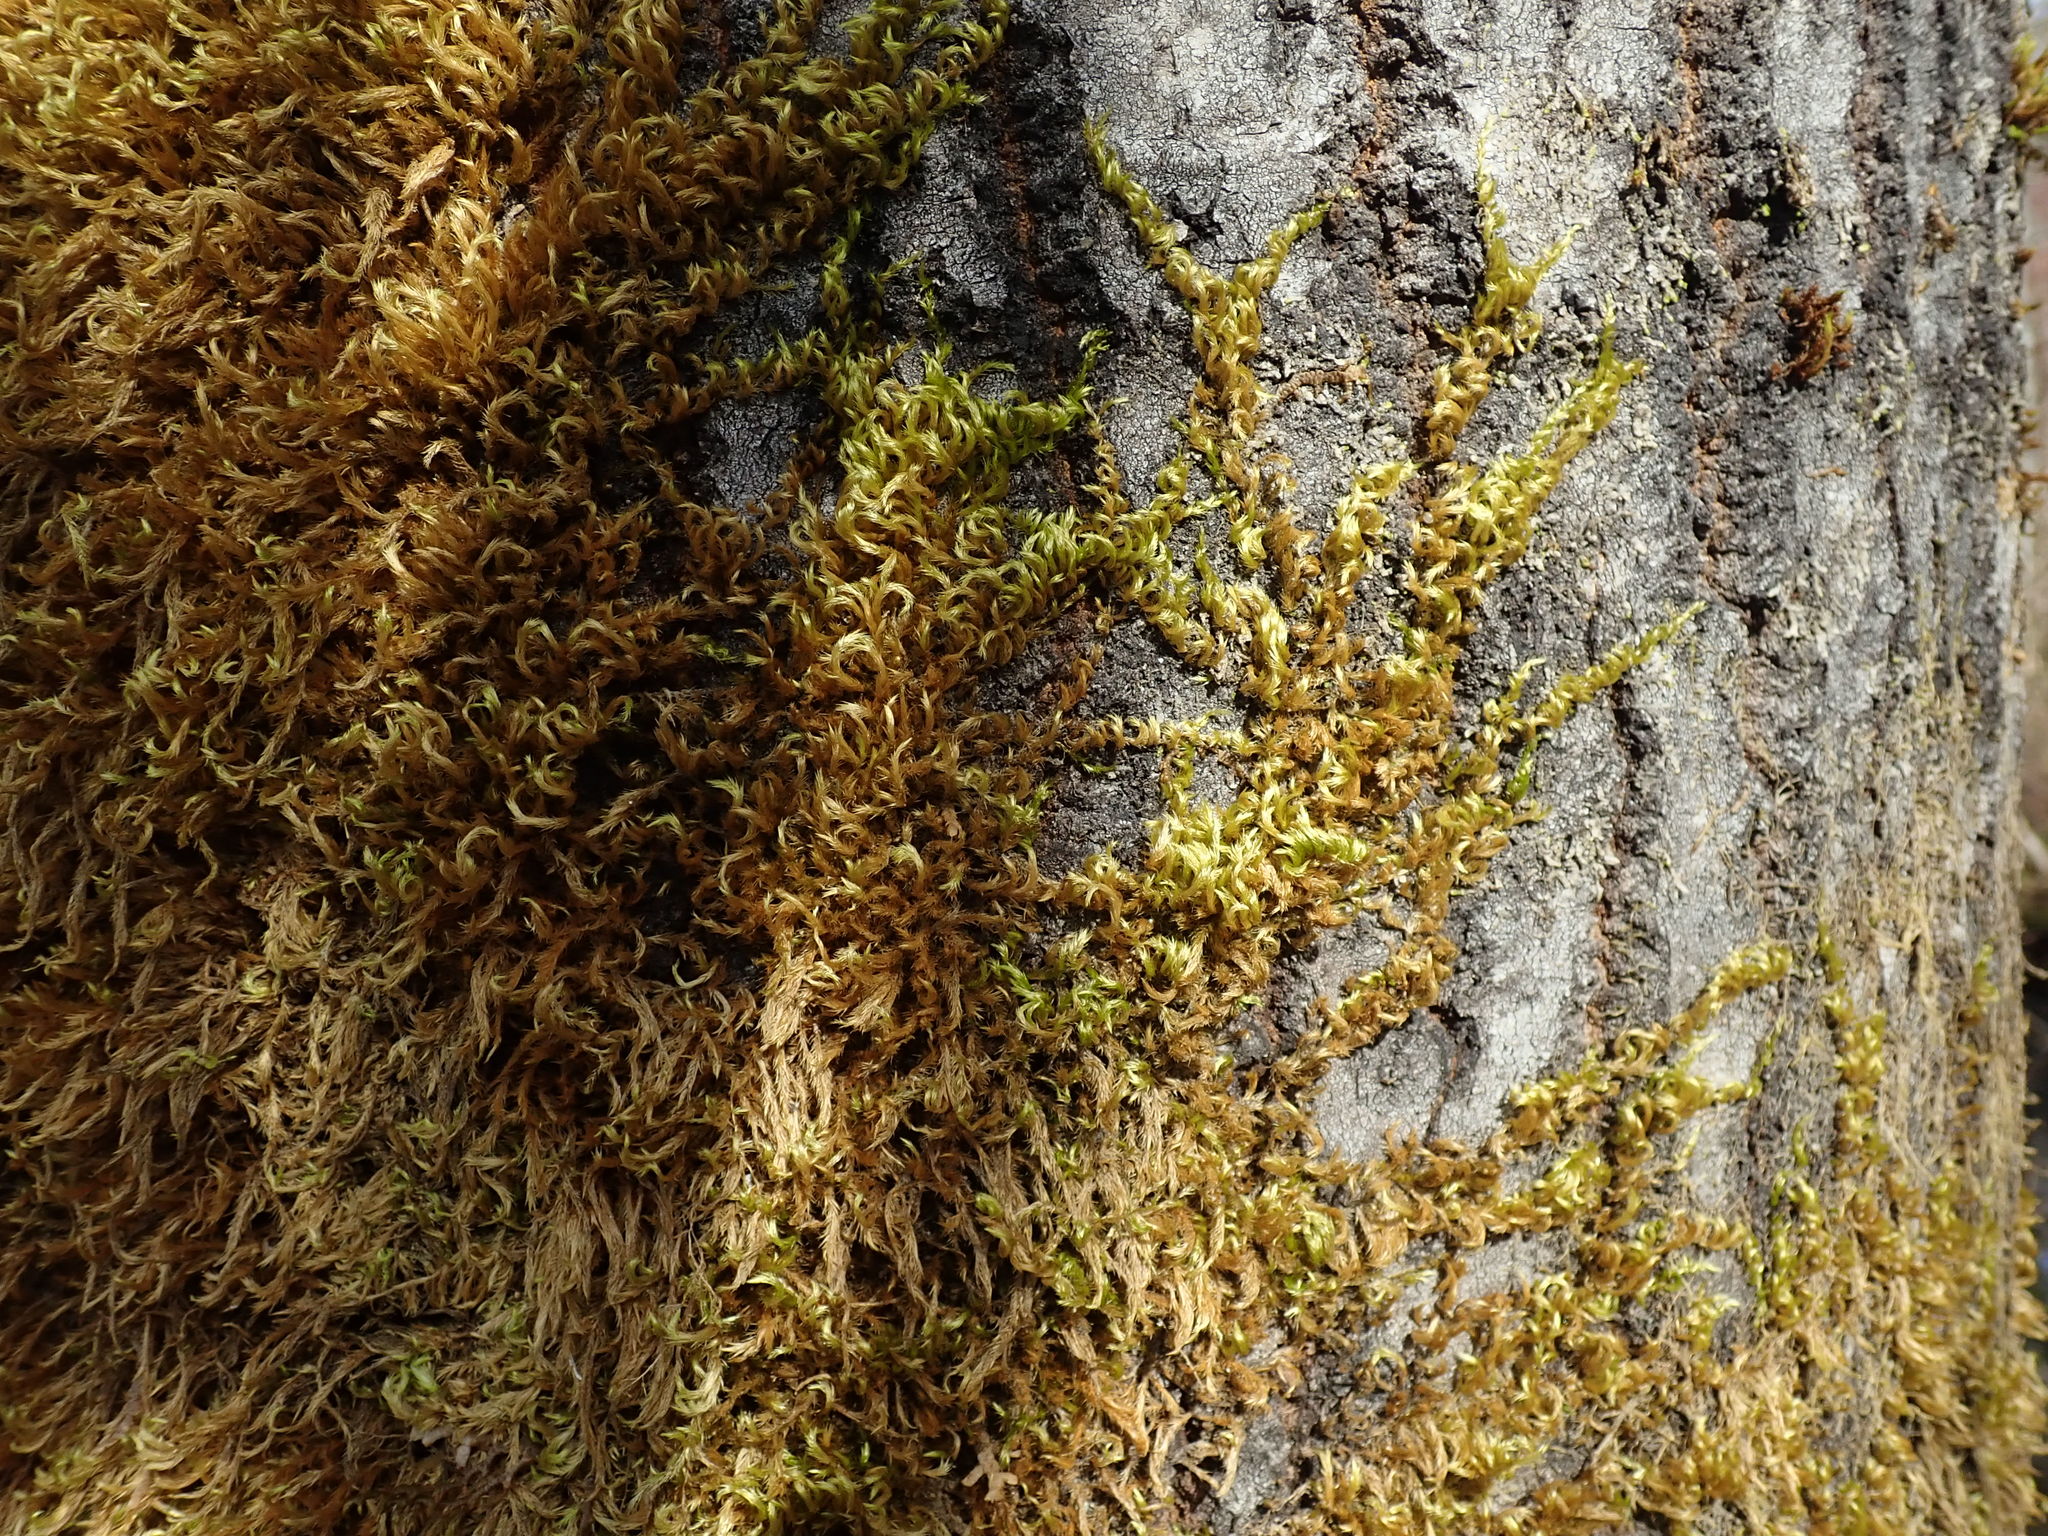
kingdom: Plantae
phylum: Bryophyta
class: Bryopsida
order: Hypnales
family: Brachytheciaceae
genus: Homalothecium
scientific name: Homalothecium fulgescens
